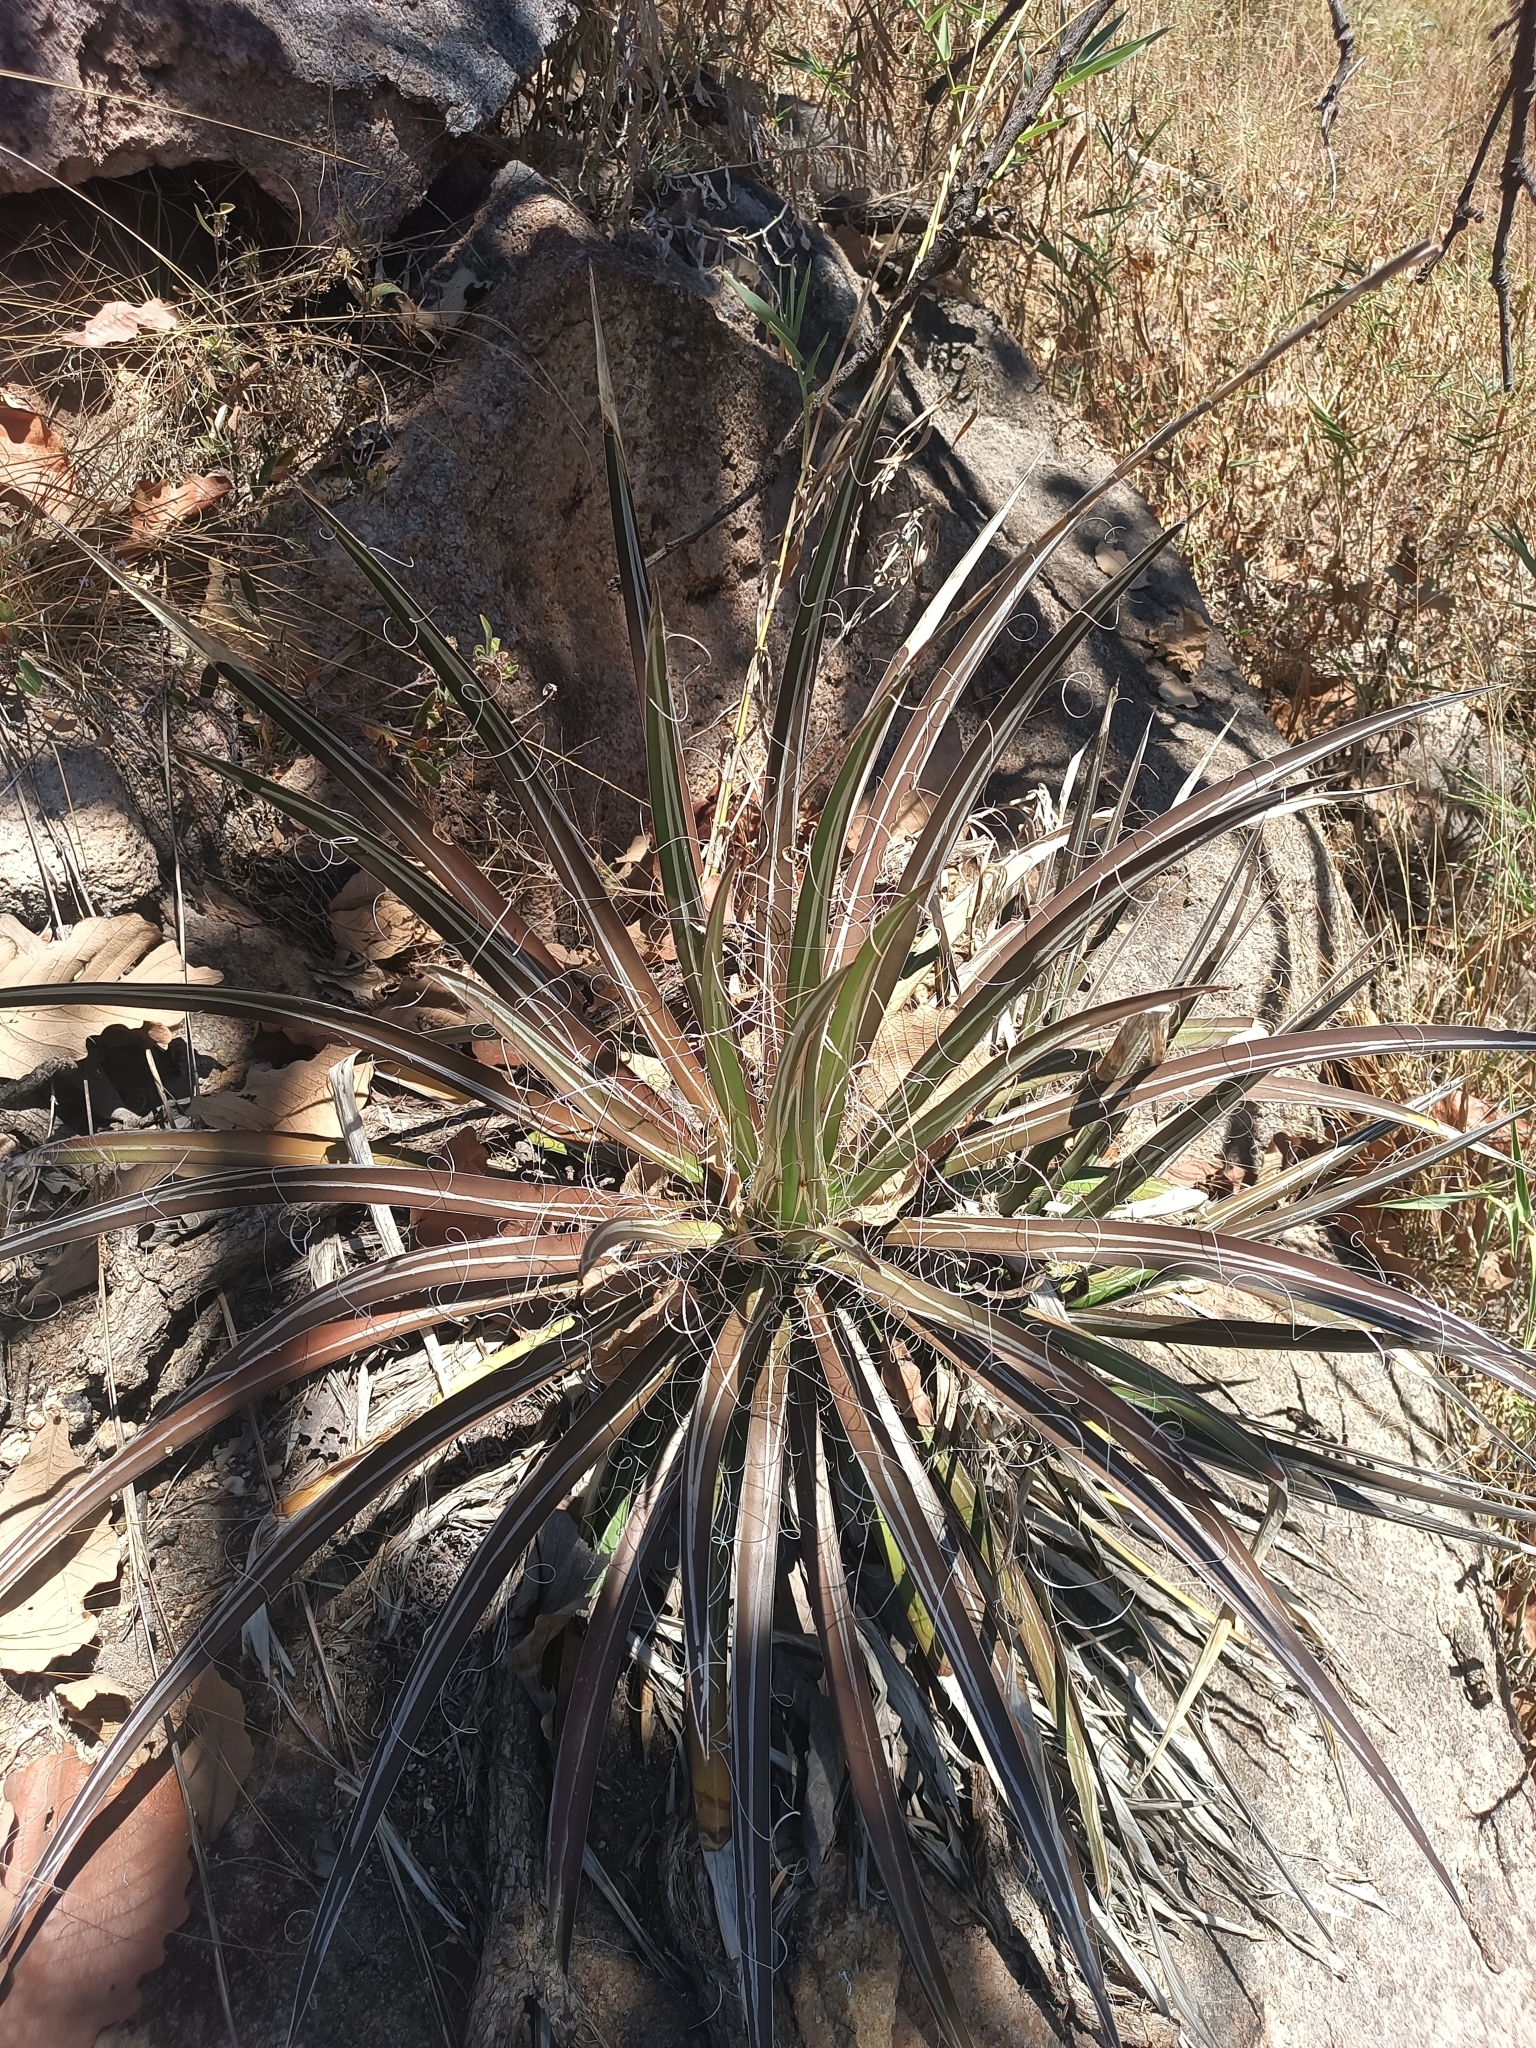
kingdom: Plantae
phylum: Tracheophyta
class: Liliopsida
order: Asparagales
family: Asparagaceae
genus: Agave
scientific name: Agave schidigera
